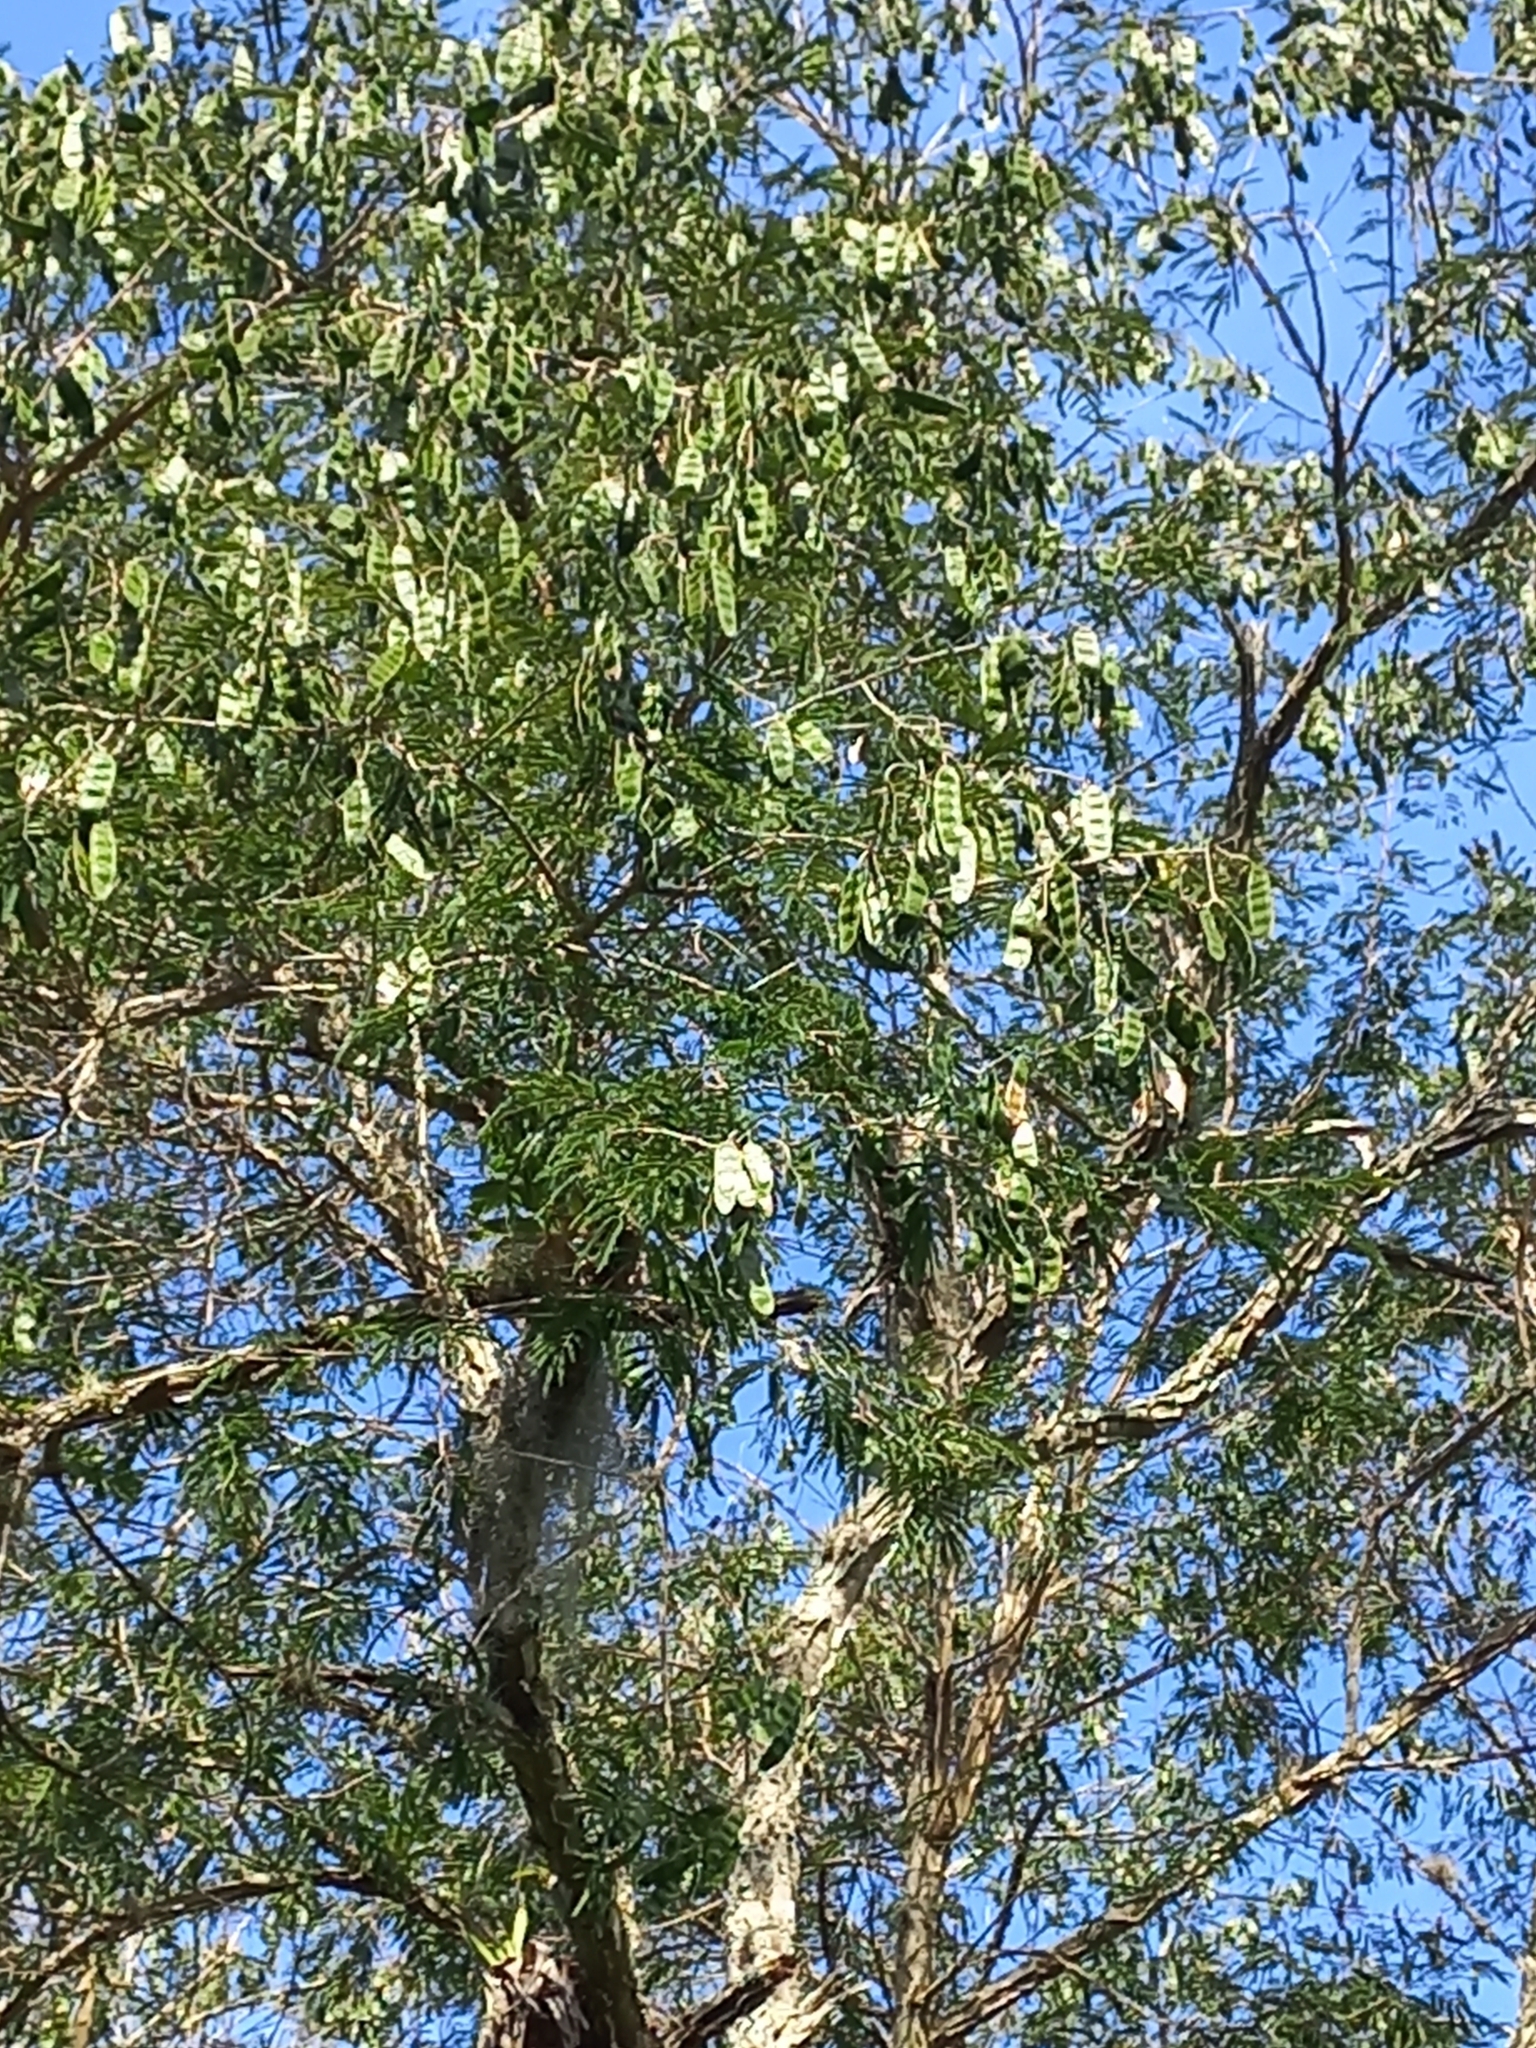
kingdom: Plantae
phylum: Tracheophyta
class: Magnoliopsida
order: Fabales
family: Fabaceae
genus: Piptadenia
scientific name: Piptadenia gonoacantha
